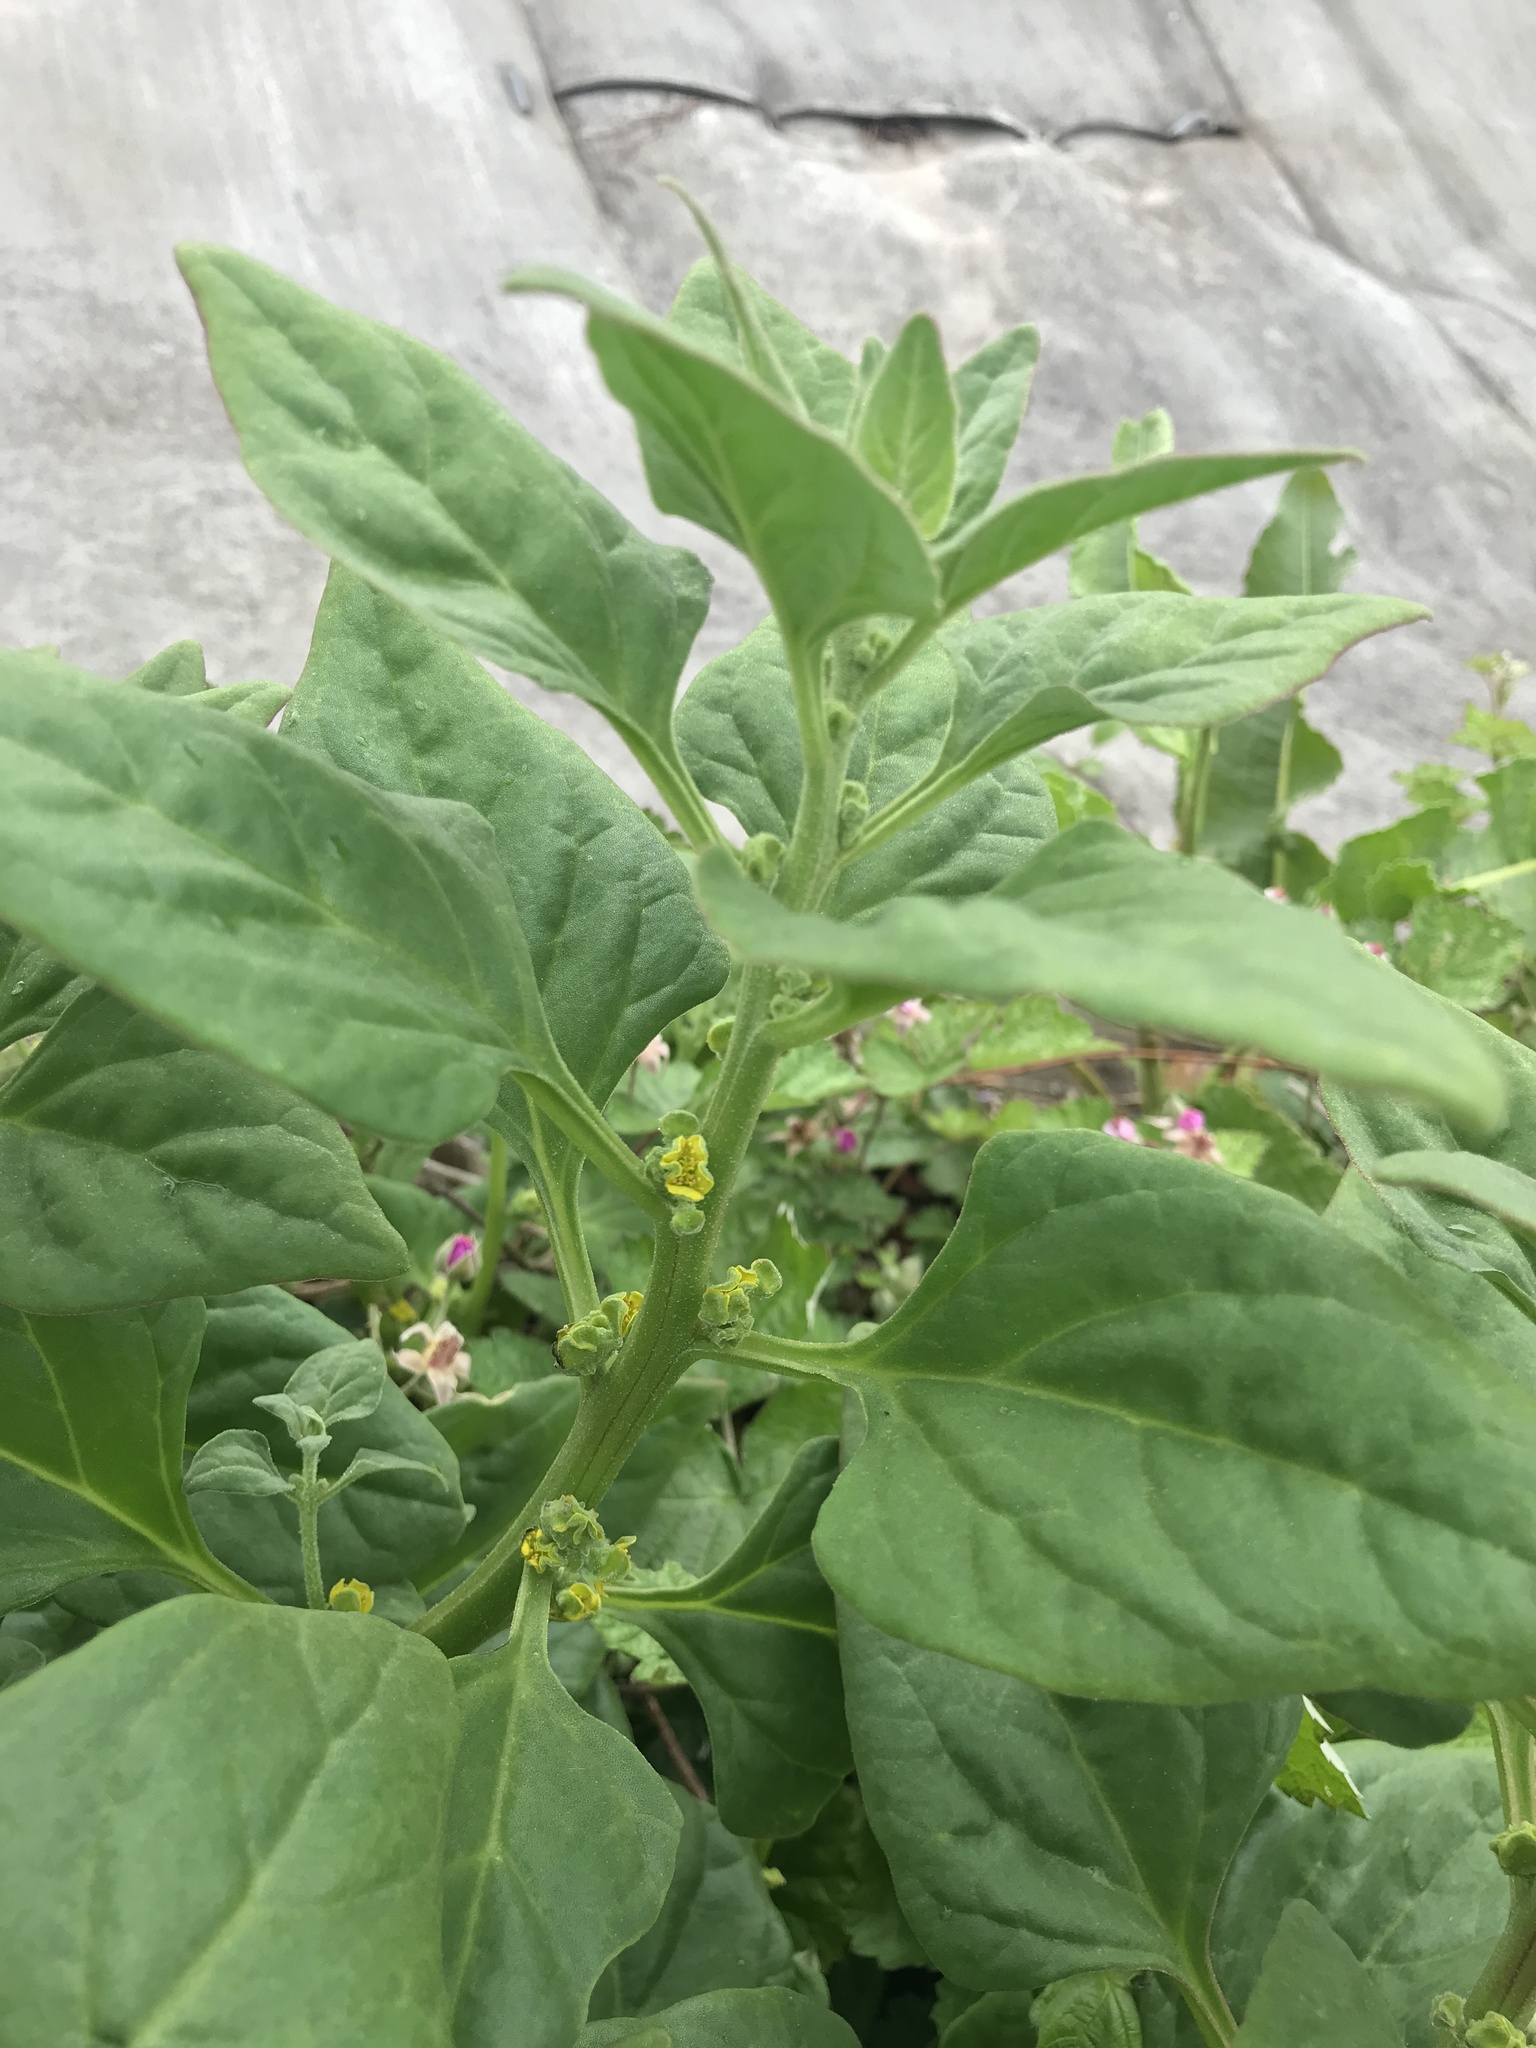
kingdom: Plantae
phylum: Tracheophyta
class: Magnoliopsida
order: Caryophyllales
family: Aizoaceae
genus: Tetragonia
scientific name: Tetragonia tetragonoides
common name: New zealand-spinach
